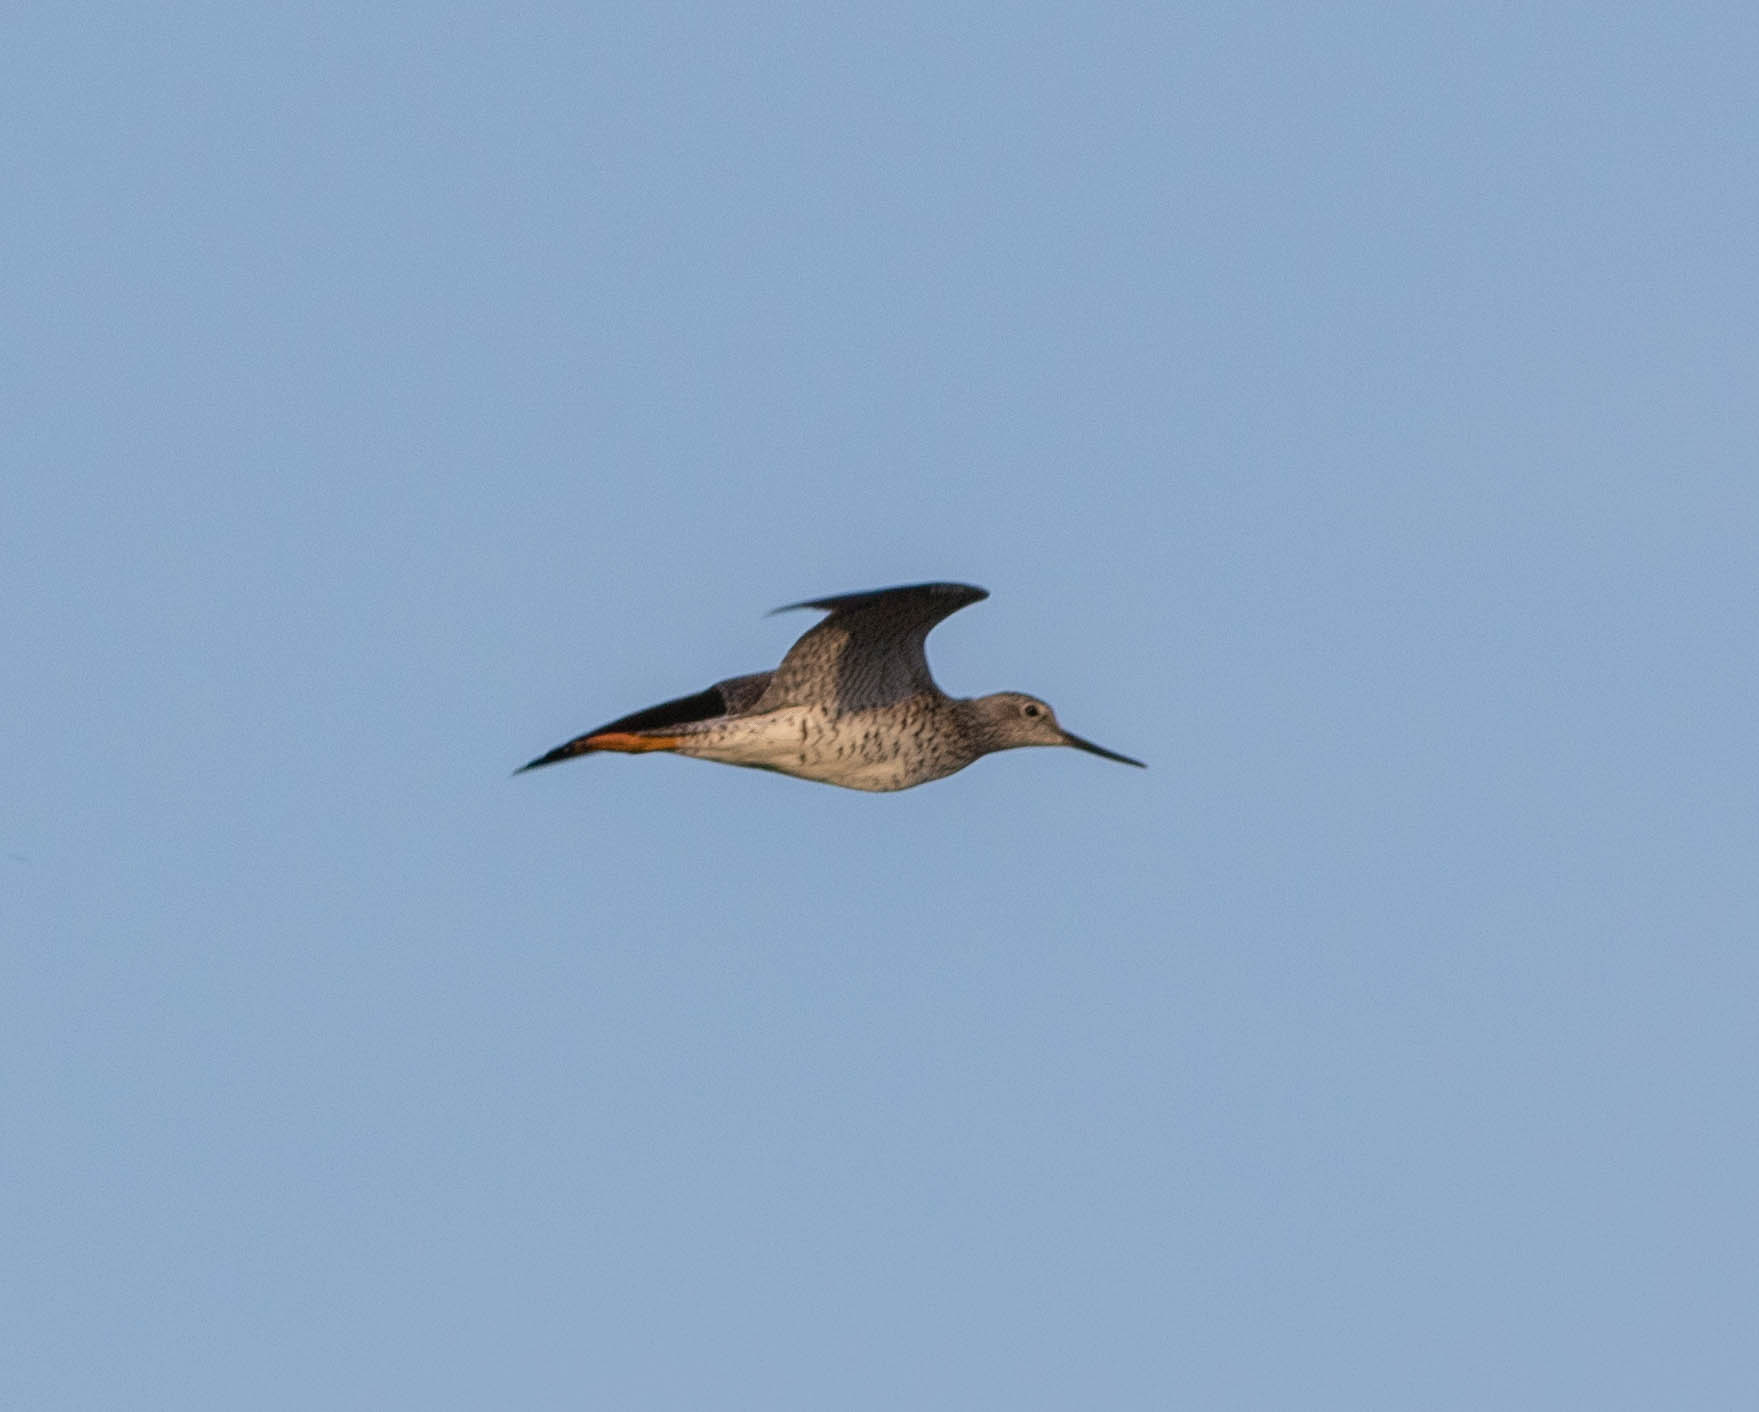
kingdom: Animalia
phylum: Chordata
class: Aves
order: Charadriiformes
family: Scolopacidae
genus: Tringa
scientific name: Tringa flavipes
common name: Lesser yellowlegs
